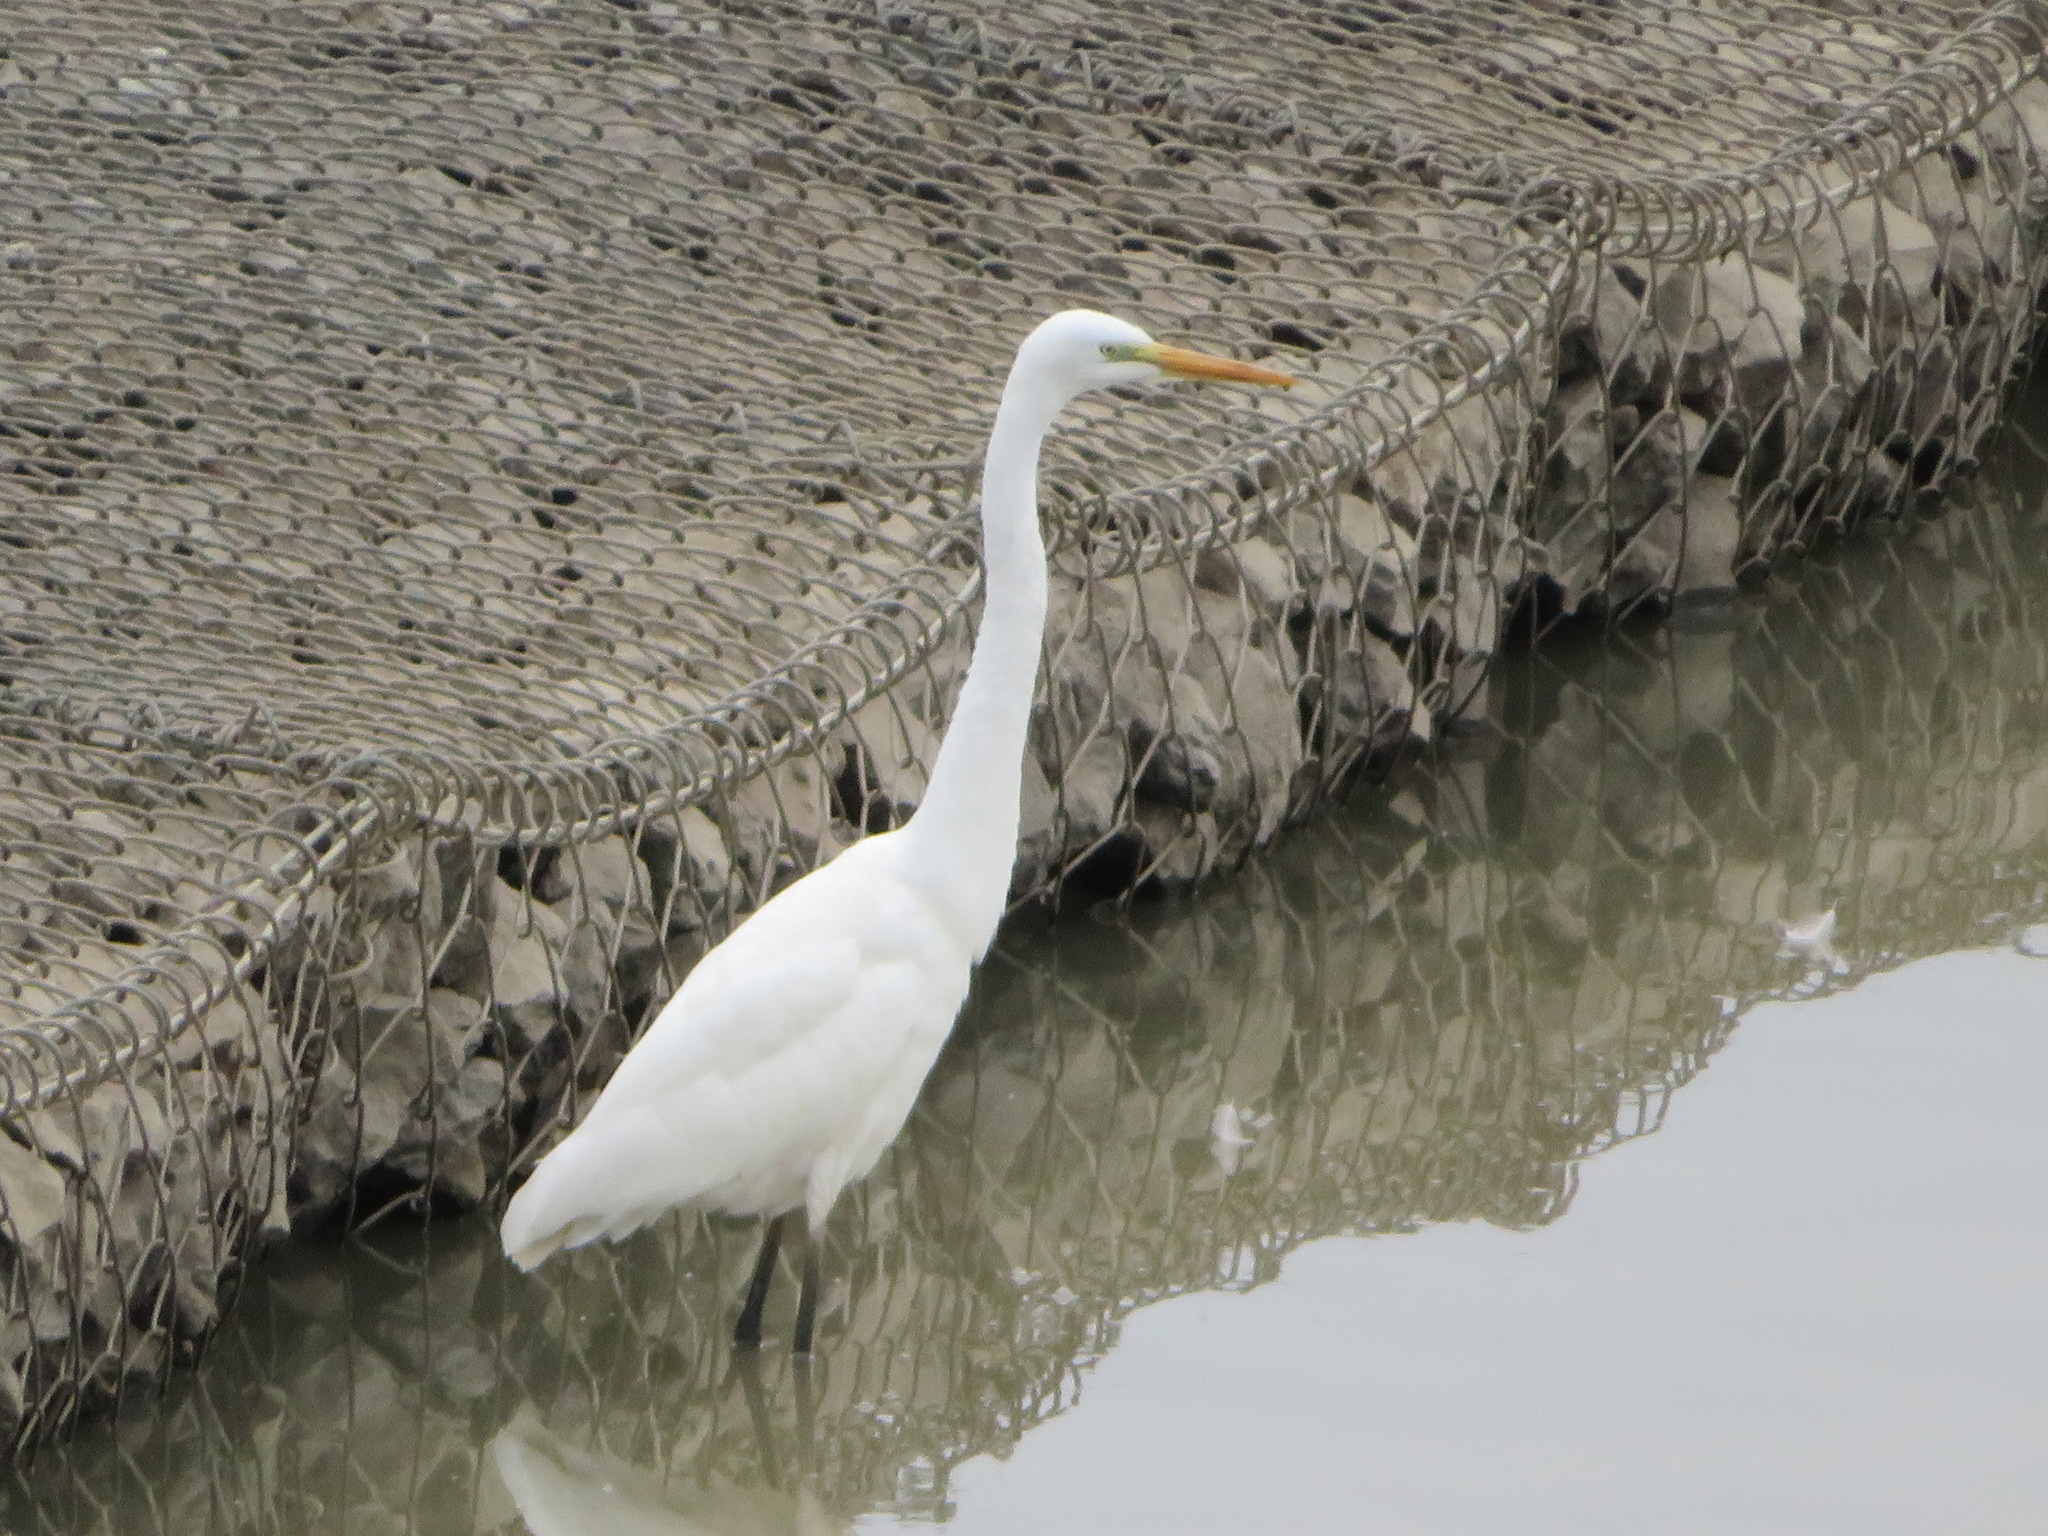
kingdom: Animalia
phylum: Chordata
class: Aves
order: Pelecaniformes
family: Ardeidae
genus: Ardea
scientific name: Ardea modesta
